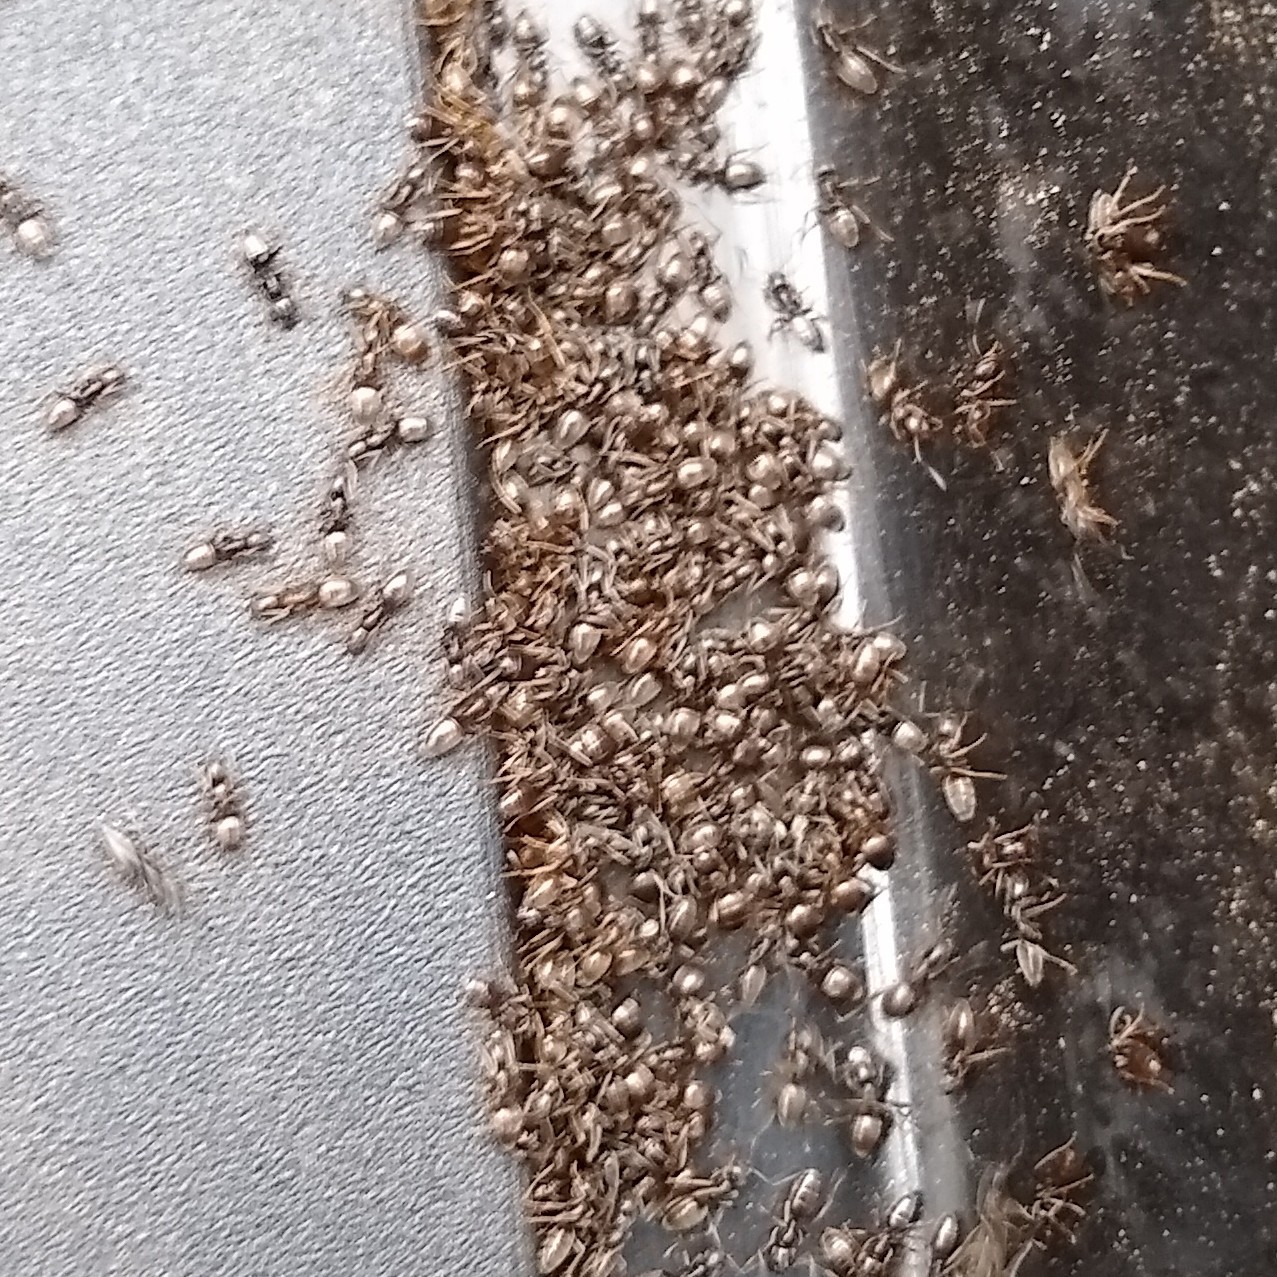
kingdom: Animalia
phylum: Arthropoda
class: Insecta
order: Hymenoptera
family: Formicidae
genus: Tapinoma
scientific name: Tapinoma sessile
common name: Odorous house ant
